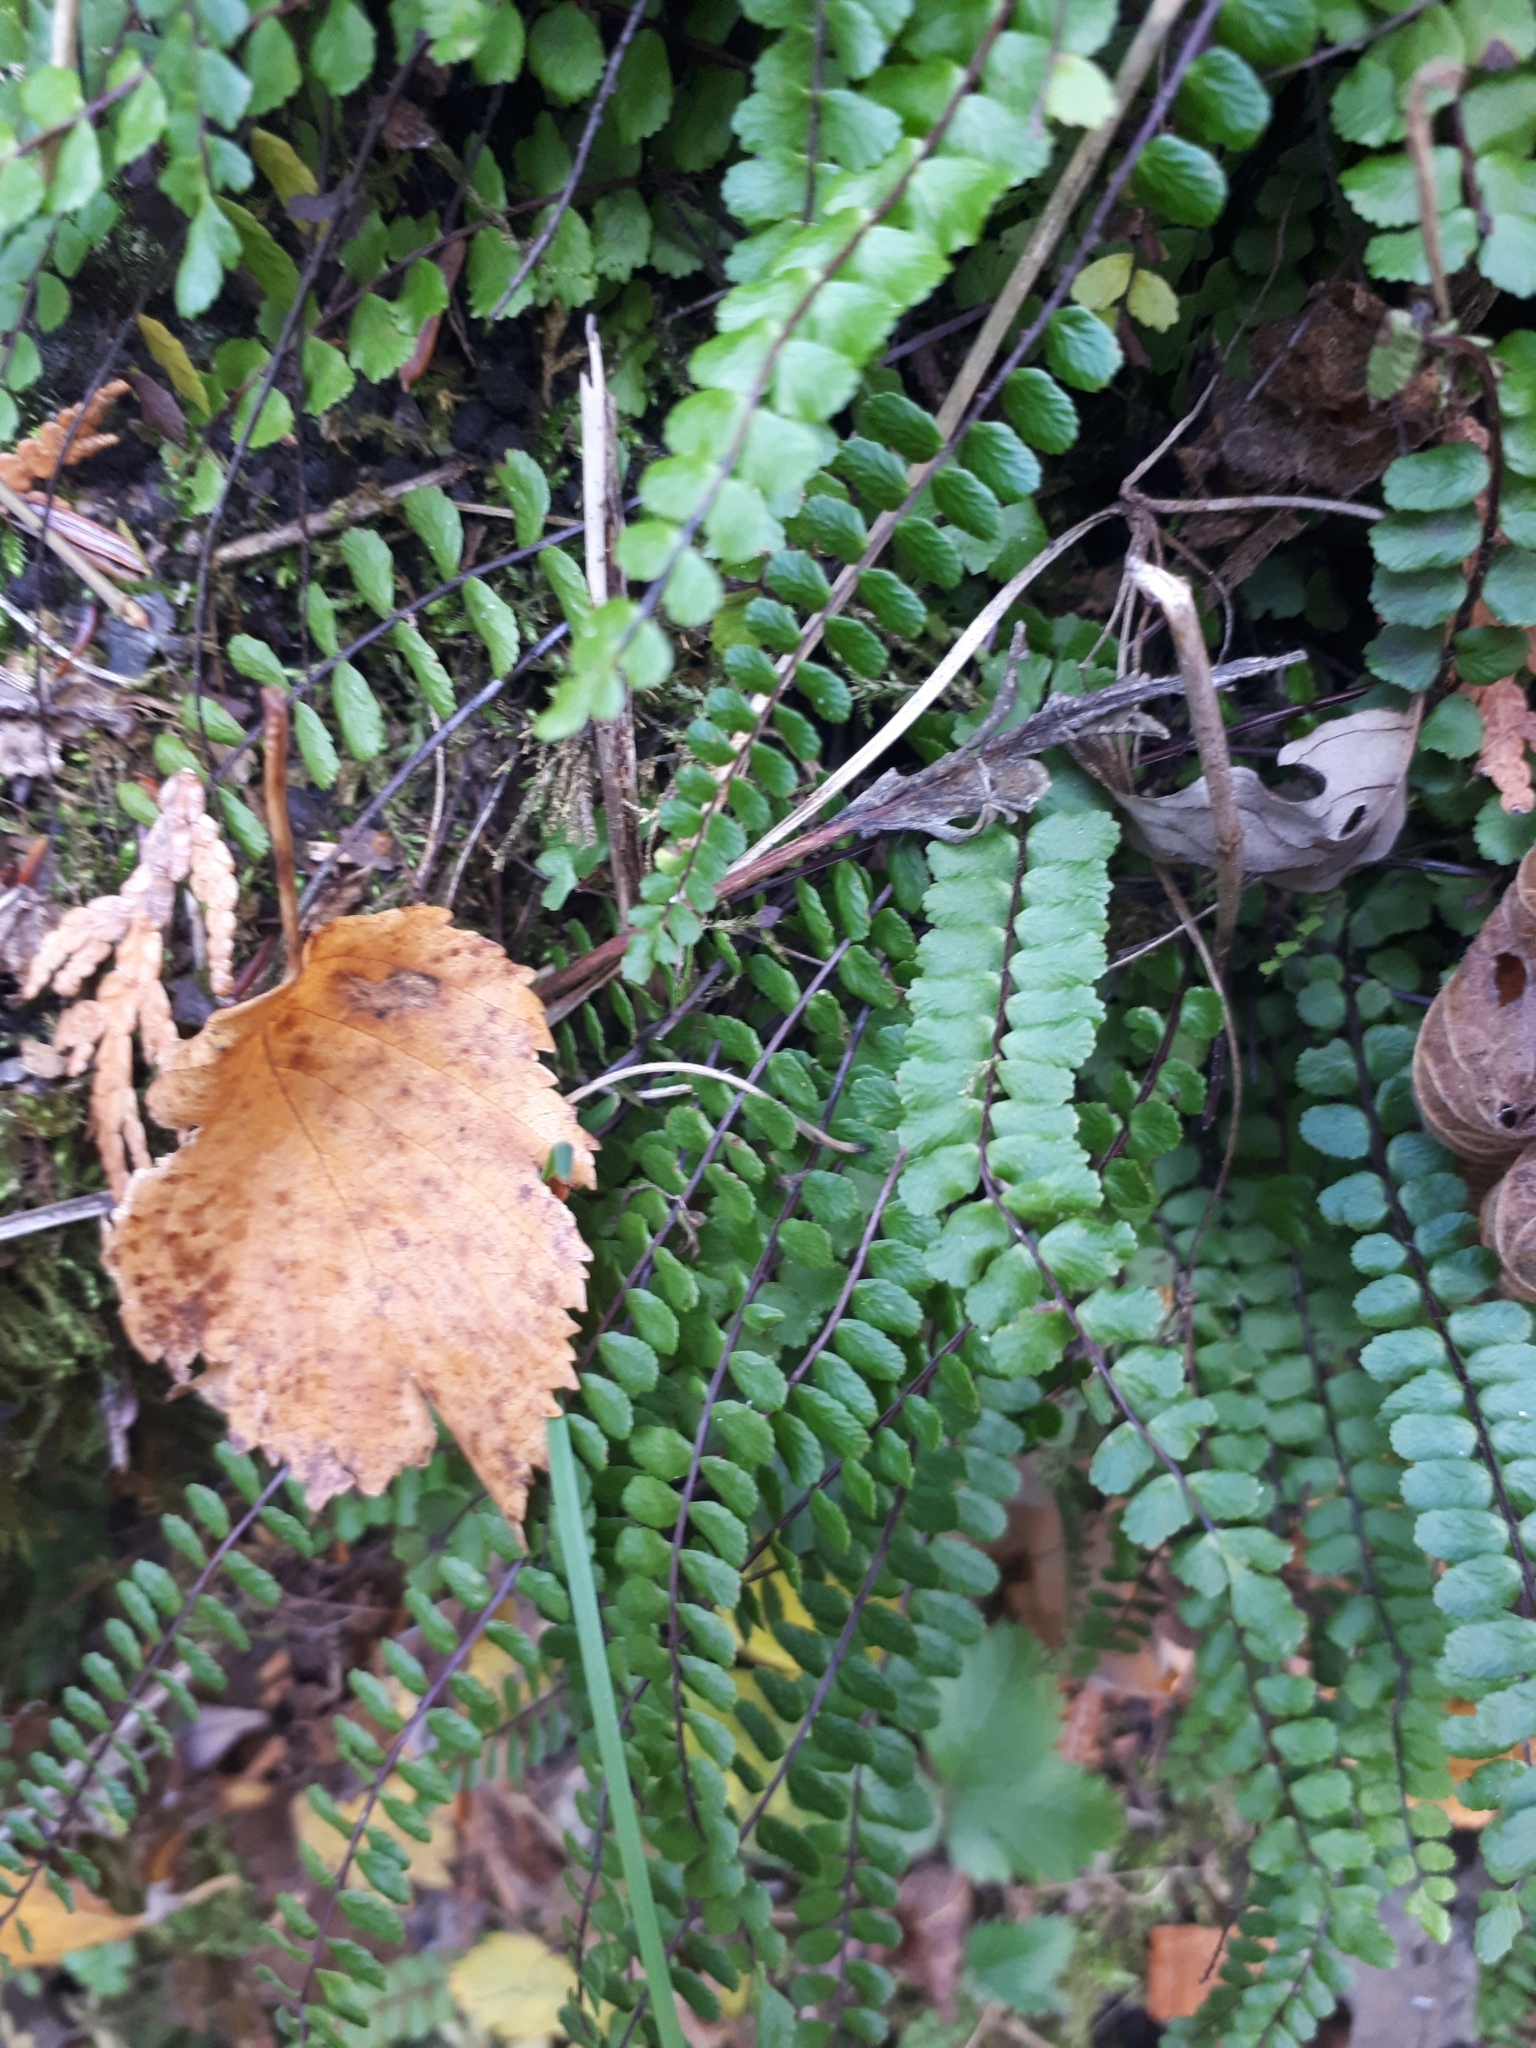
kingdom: Plantae
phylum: Tracheophyta
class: Polypodiopsida
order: Polypodiales
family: Aspleniaceae
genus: Asplenium
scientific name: Asplenium trichomanes
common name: Maidenhair spleenwort
